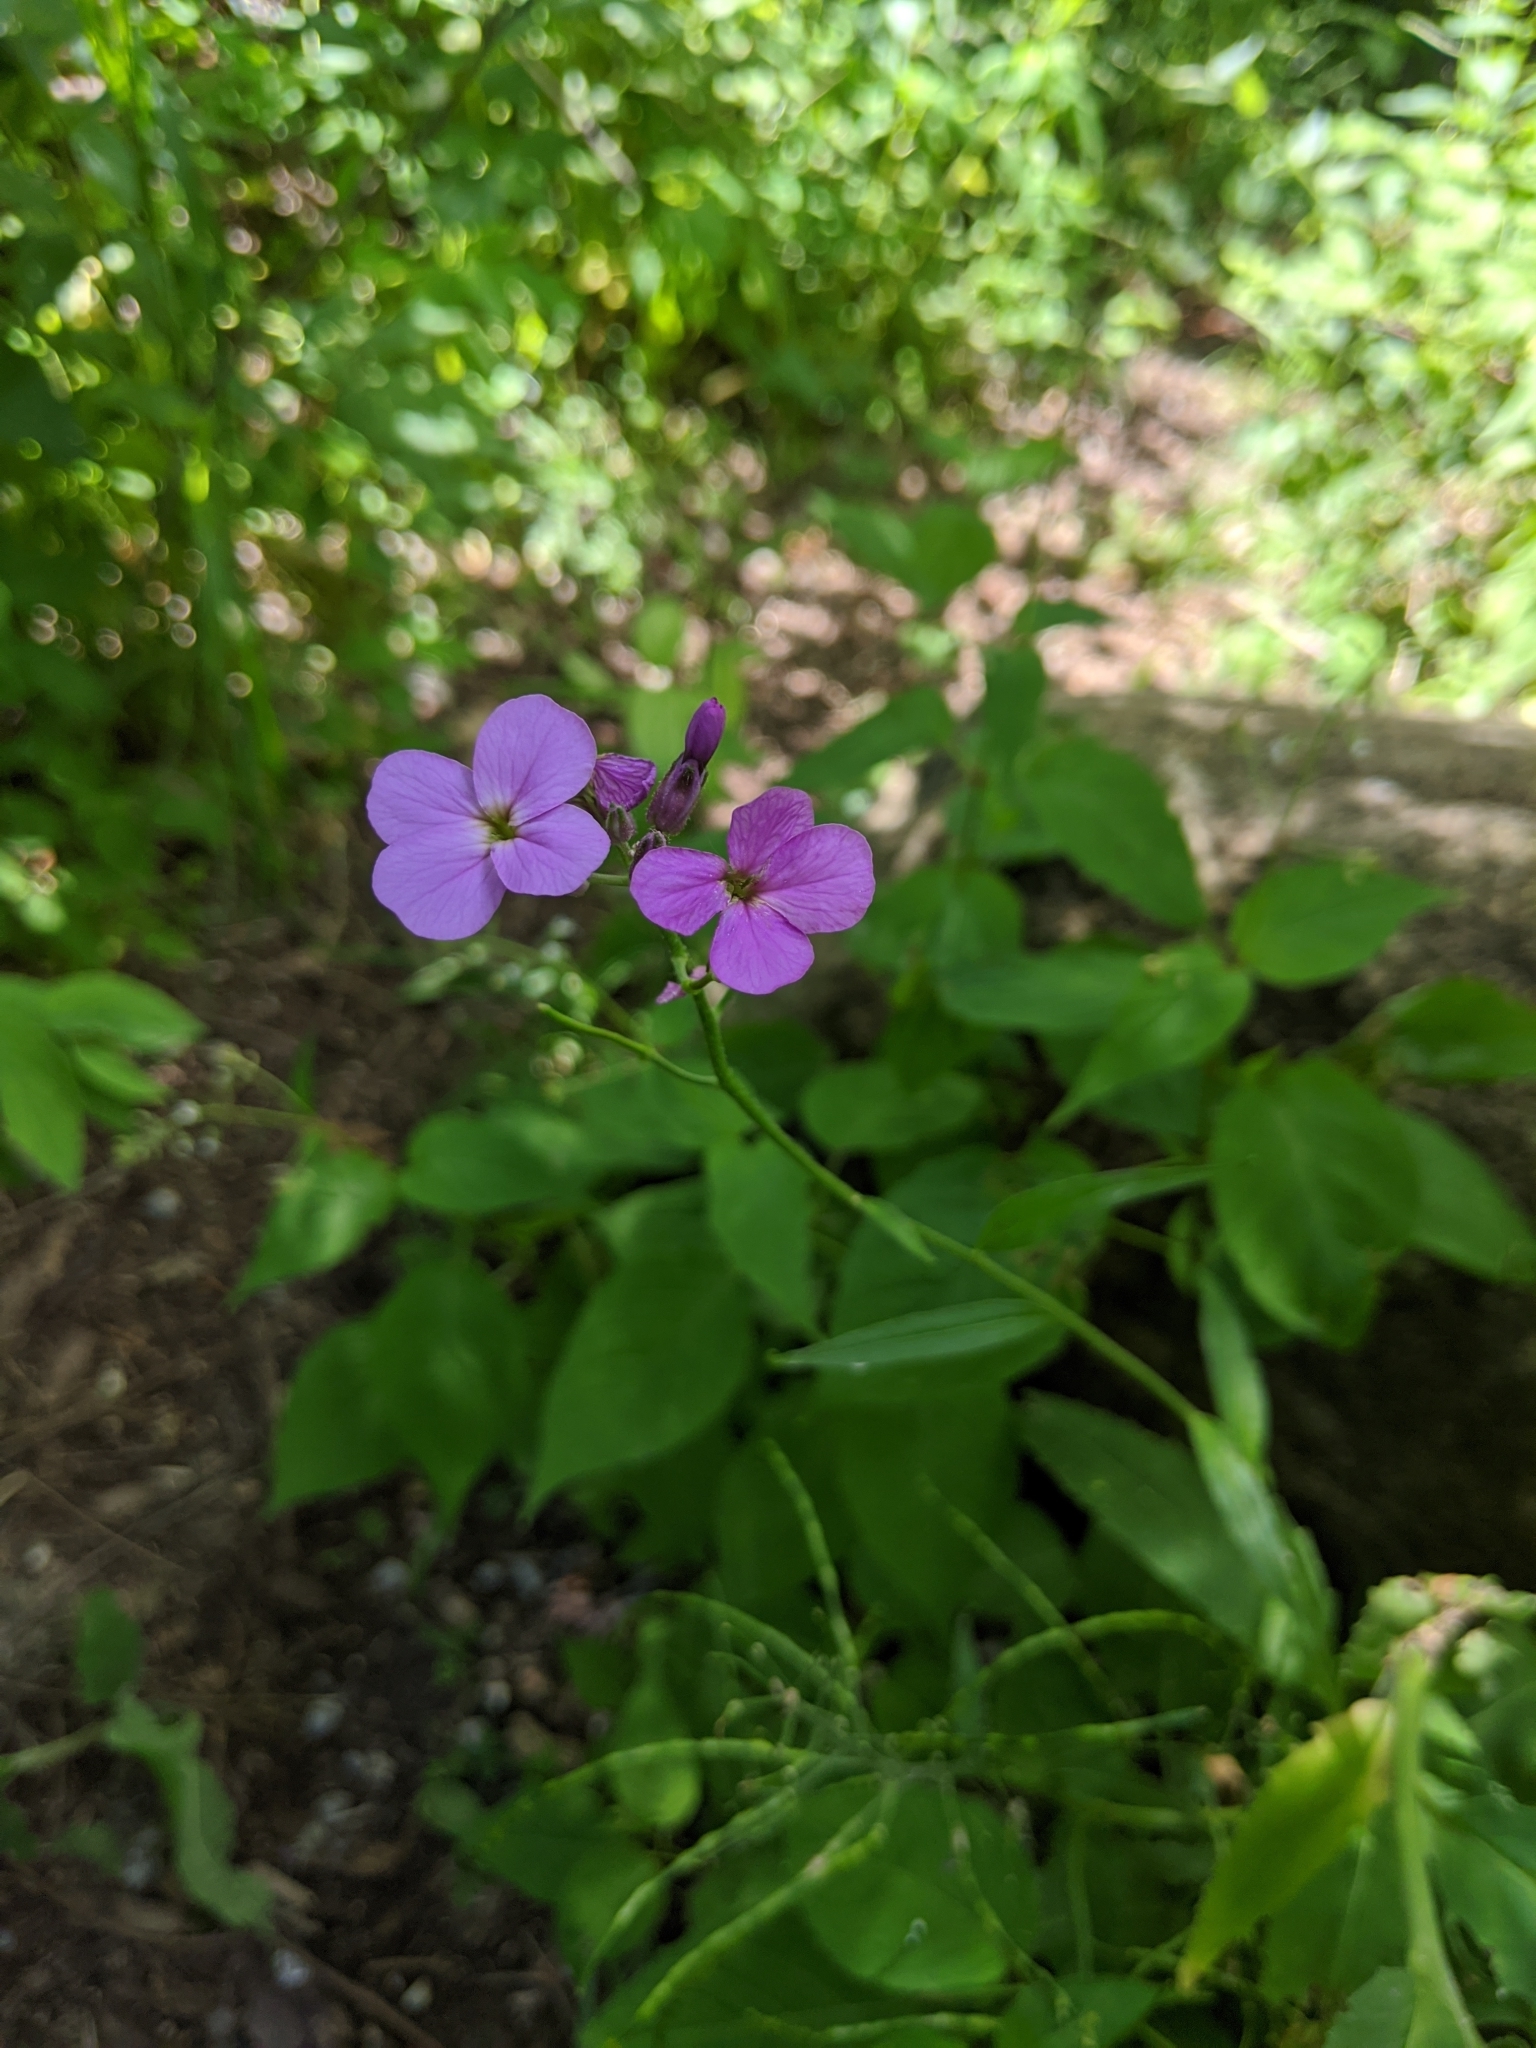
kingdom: Plantae
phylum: Tracheophyta
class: Magnoliopsida
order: Brassicales
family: Brassicaceae
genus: Hesperis
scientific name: Hesperis matronalis
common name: Dame's-violet
